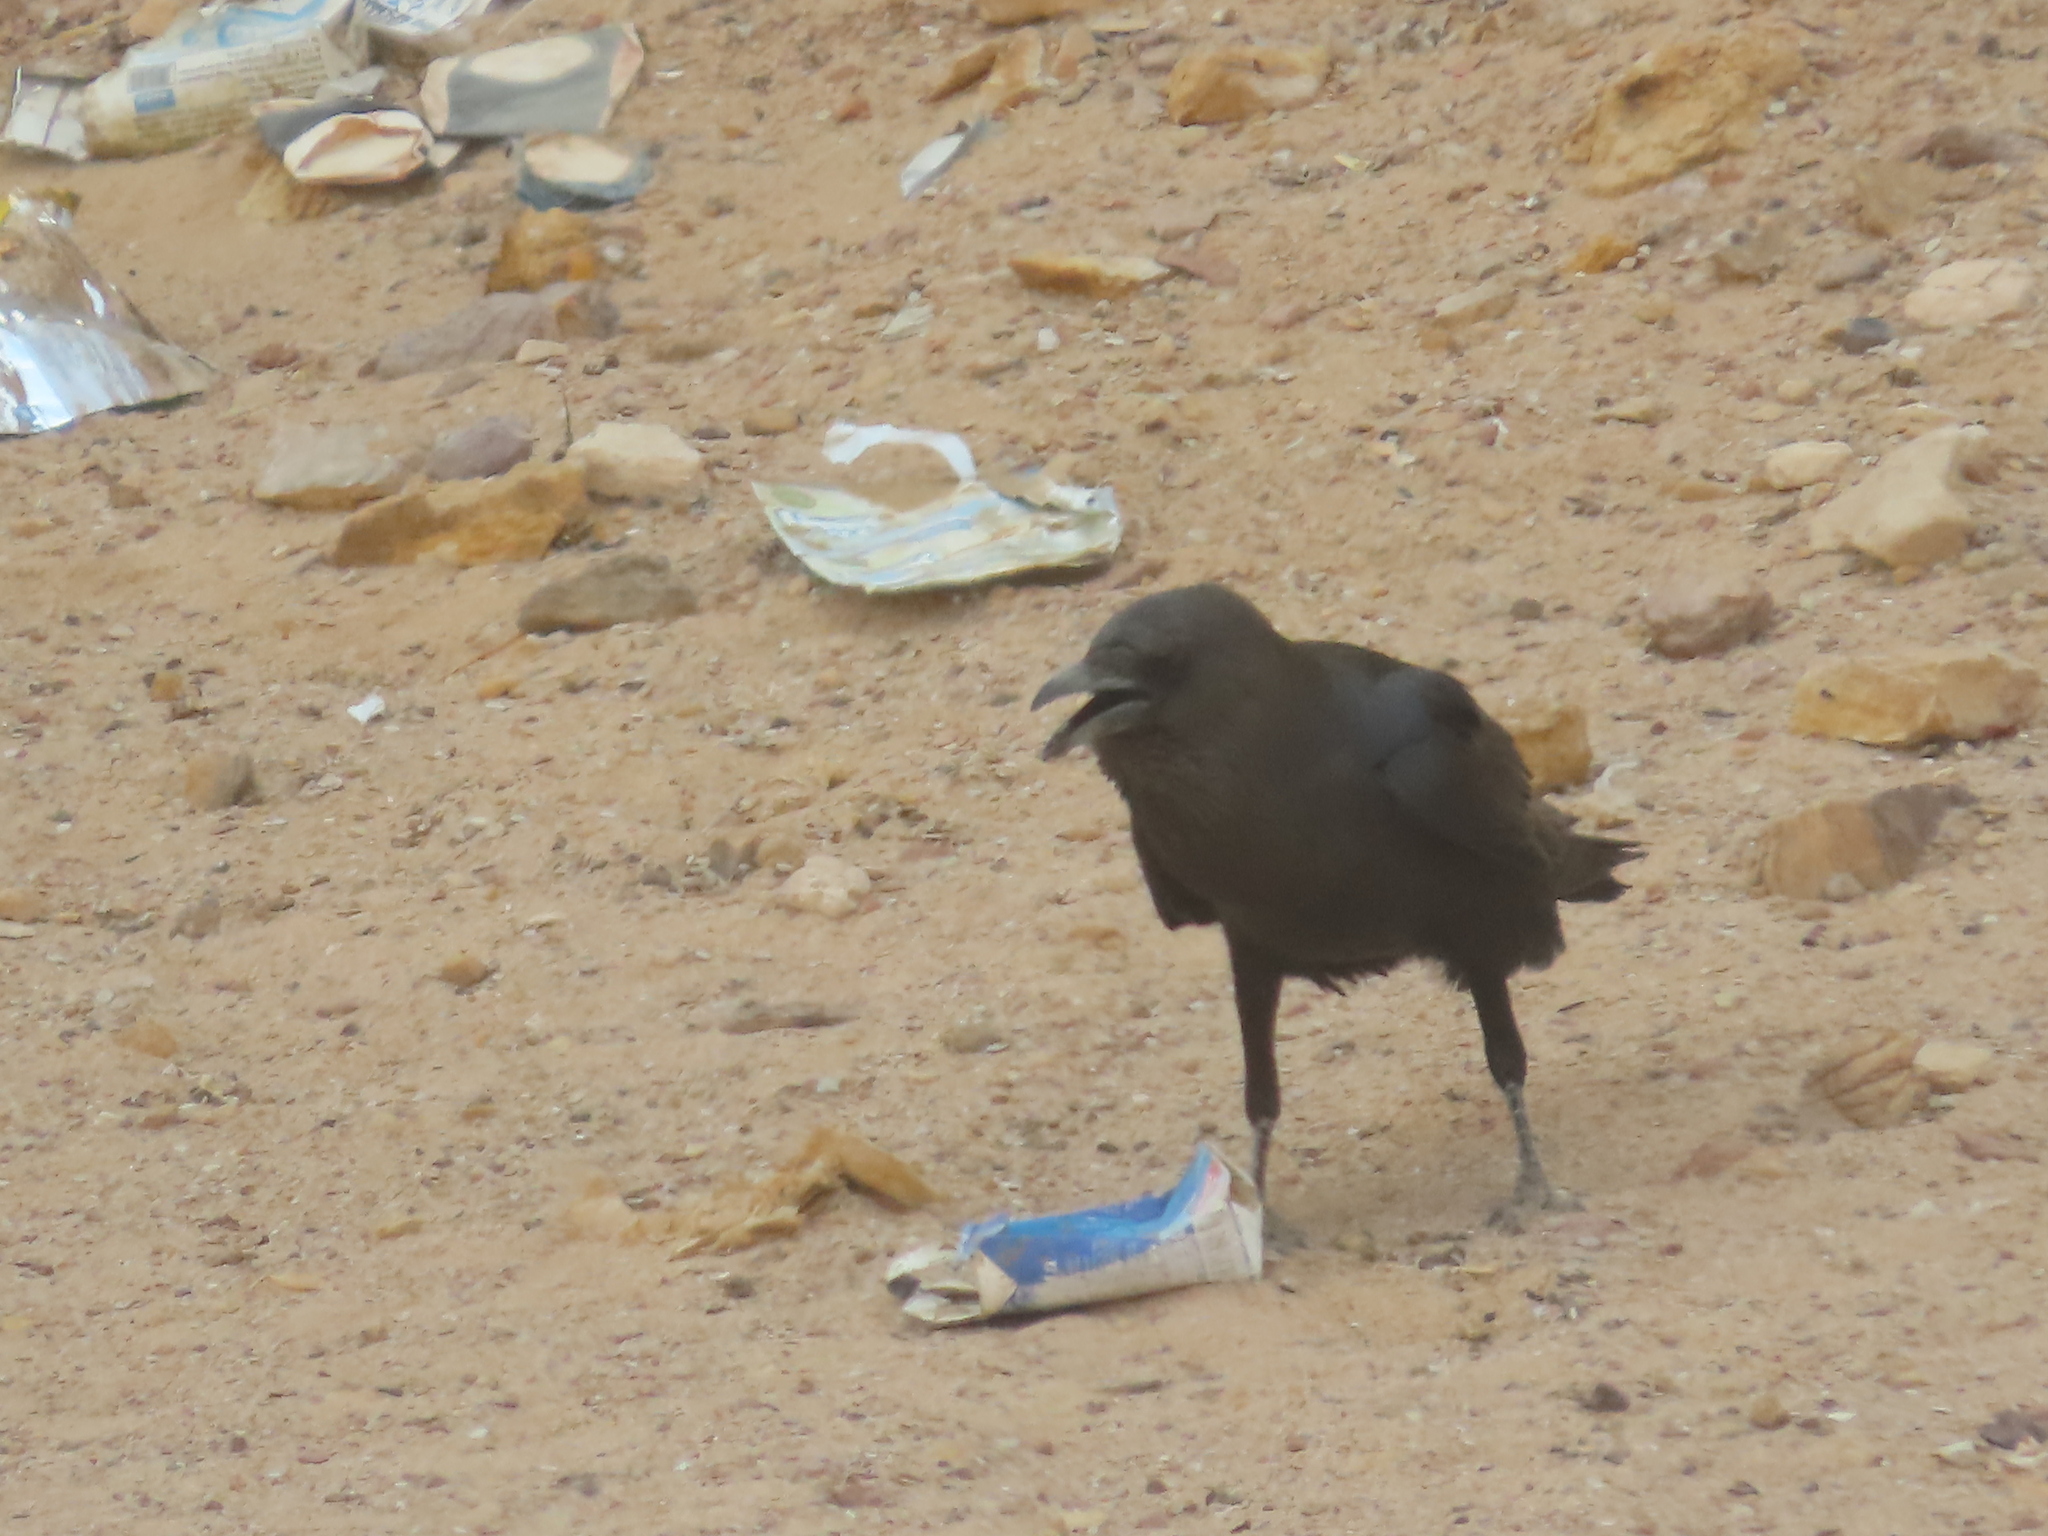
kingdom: Animalia
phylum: Chordata
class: Aves
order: Passeriformes
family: Corvidae
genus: Corvus
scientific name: Corvus ruficollis
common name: Brown-necked raven
